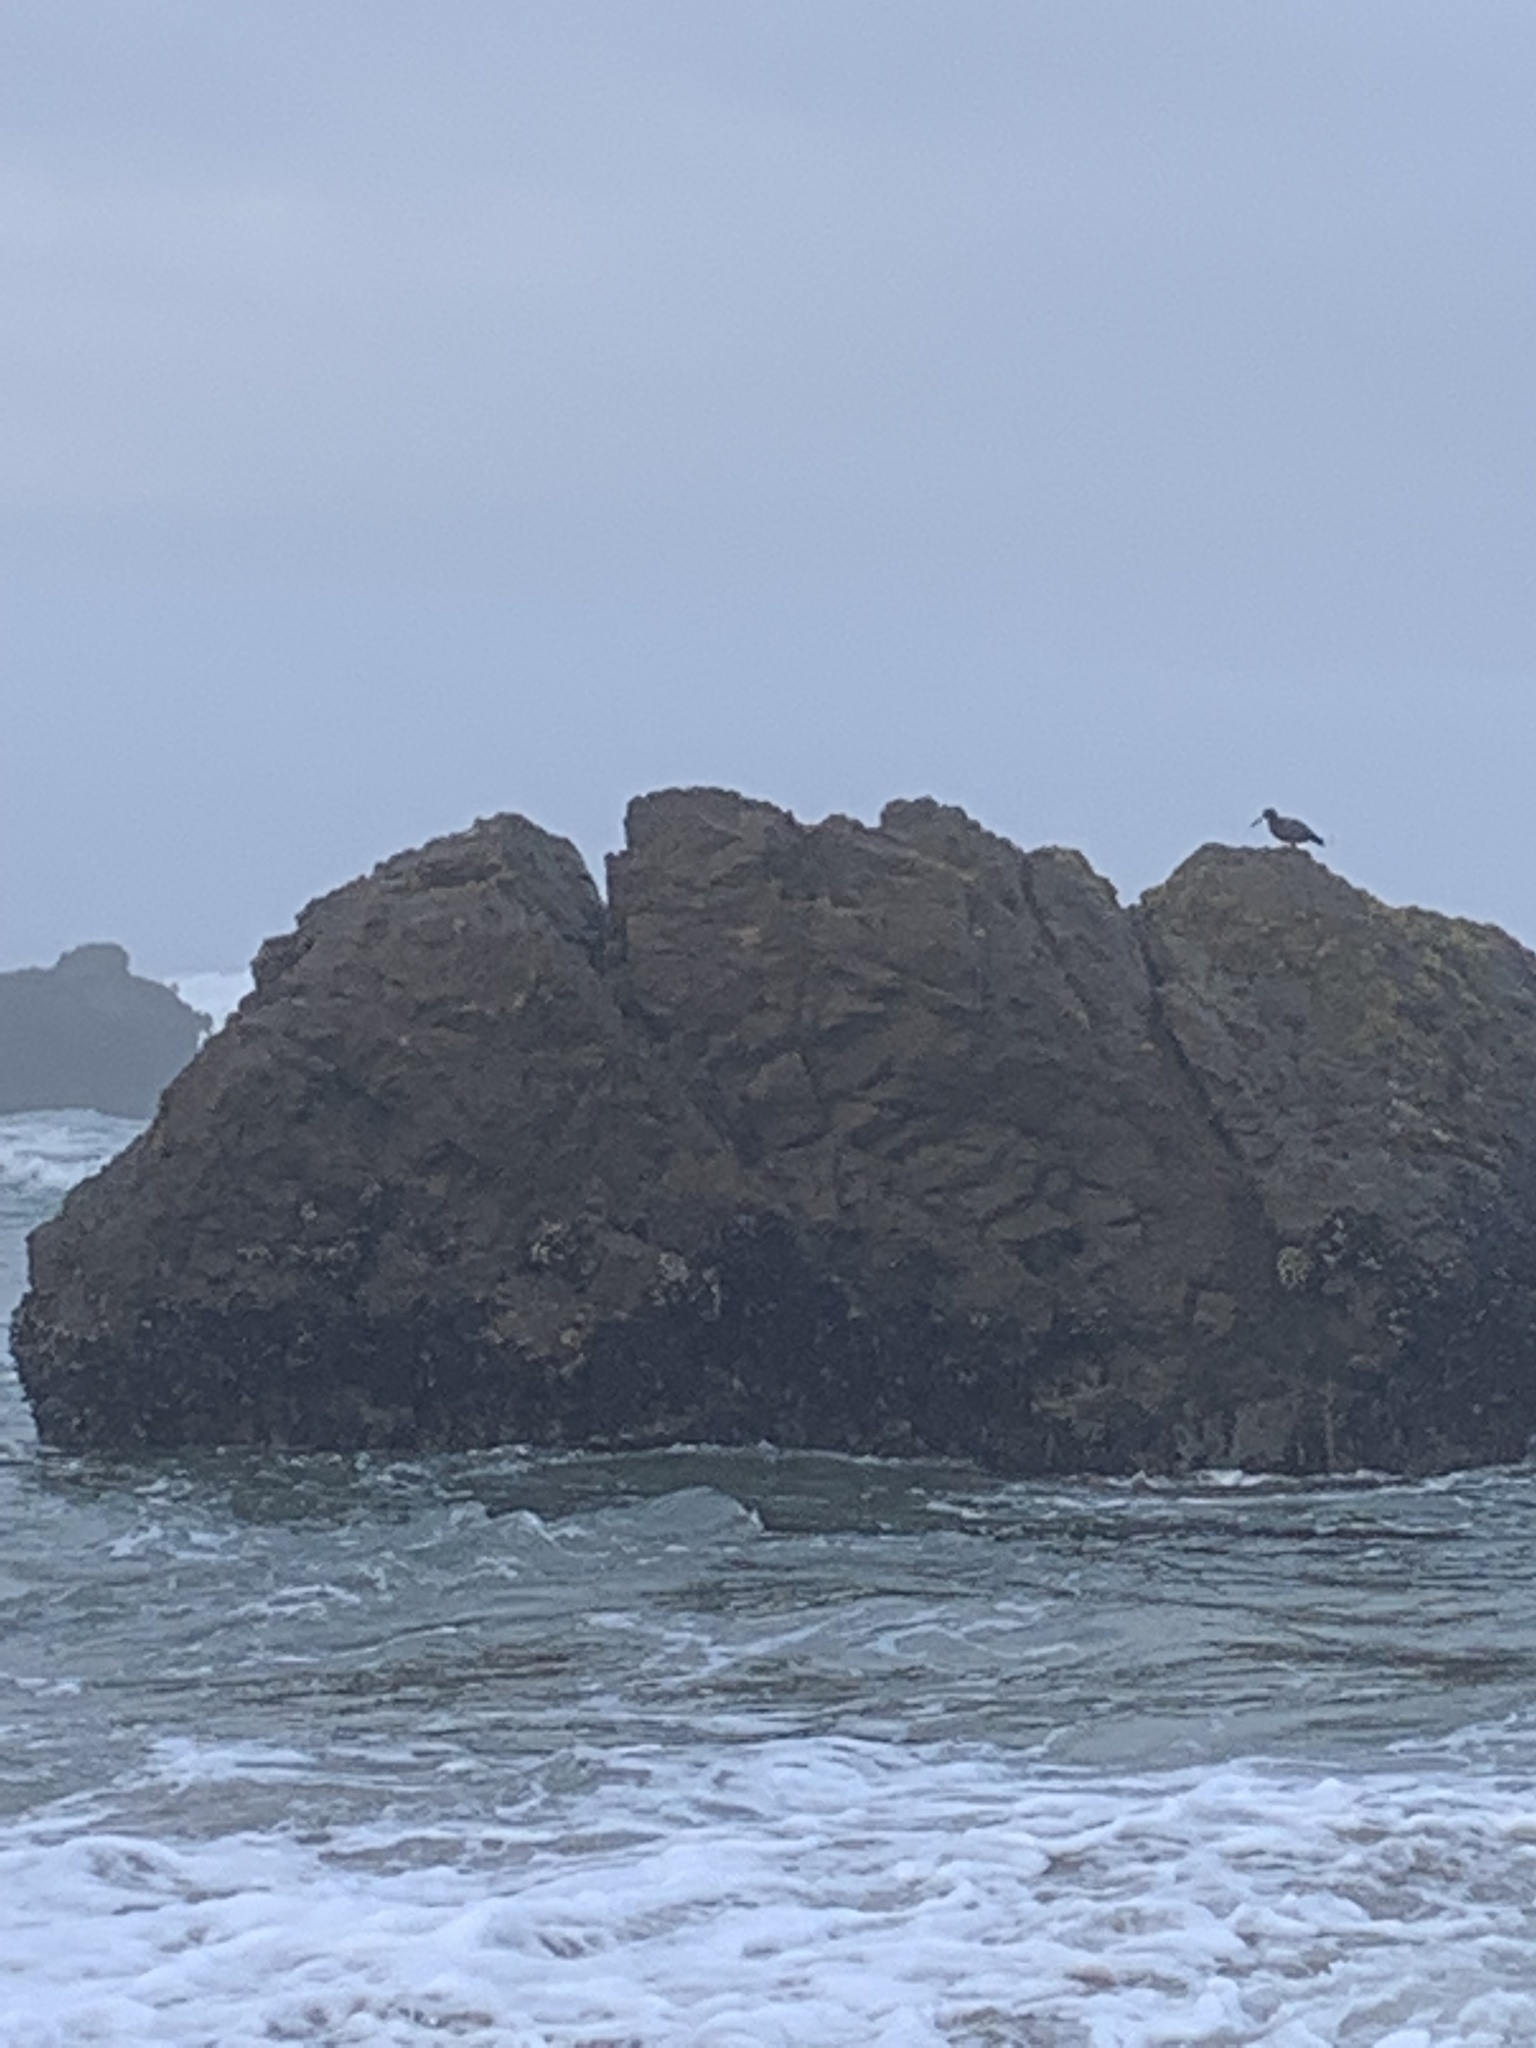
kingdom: Animalia
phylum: Chordata
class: Aves
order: Charadriiformes
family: Haematopodidae
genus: Haematopus
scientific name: Haematopus bachmani
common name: Black oystercatcher
